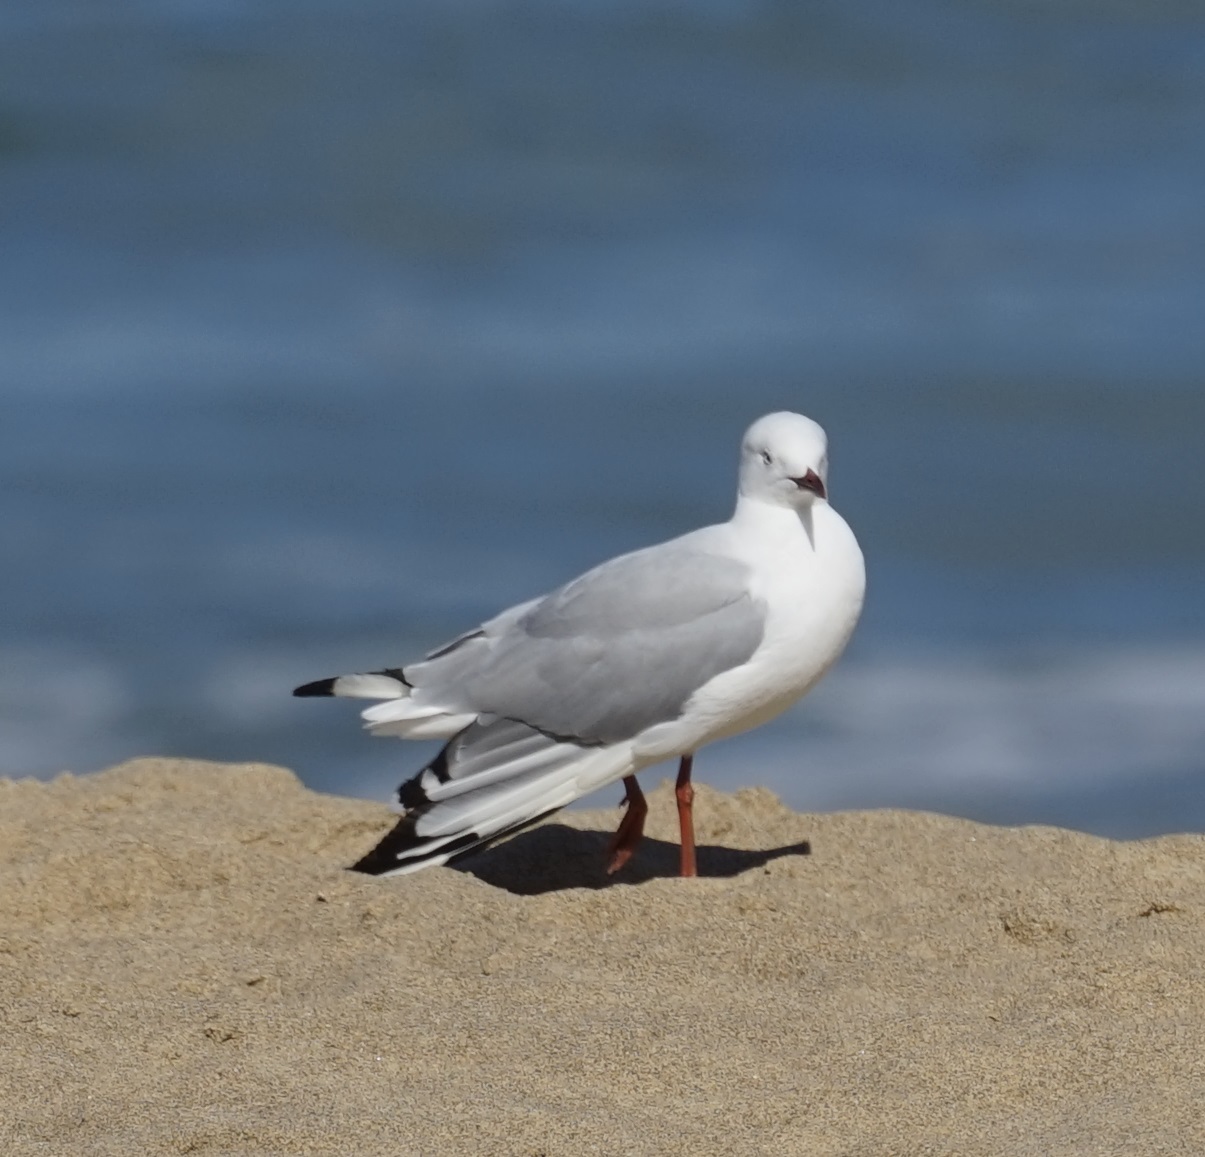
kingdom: Animalia
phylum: Chordata
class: Aves
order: Charadriiformes
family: Laridae
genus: Chroicocephalus
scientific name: Chroicocephalus novaehollandiae
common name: Silver gull
